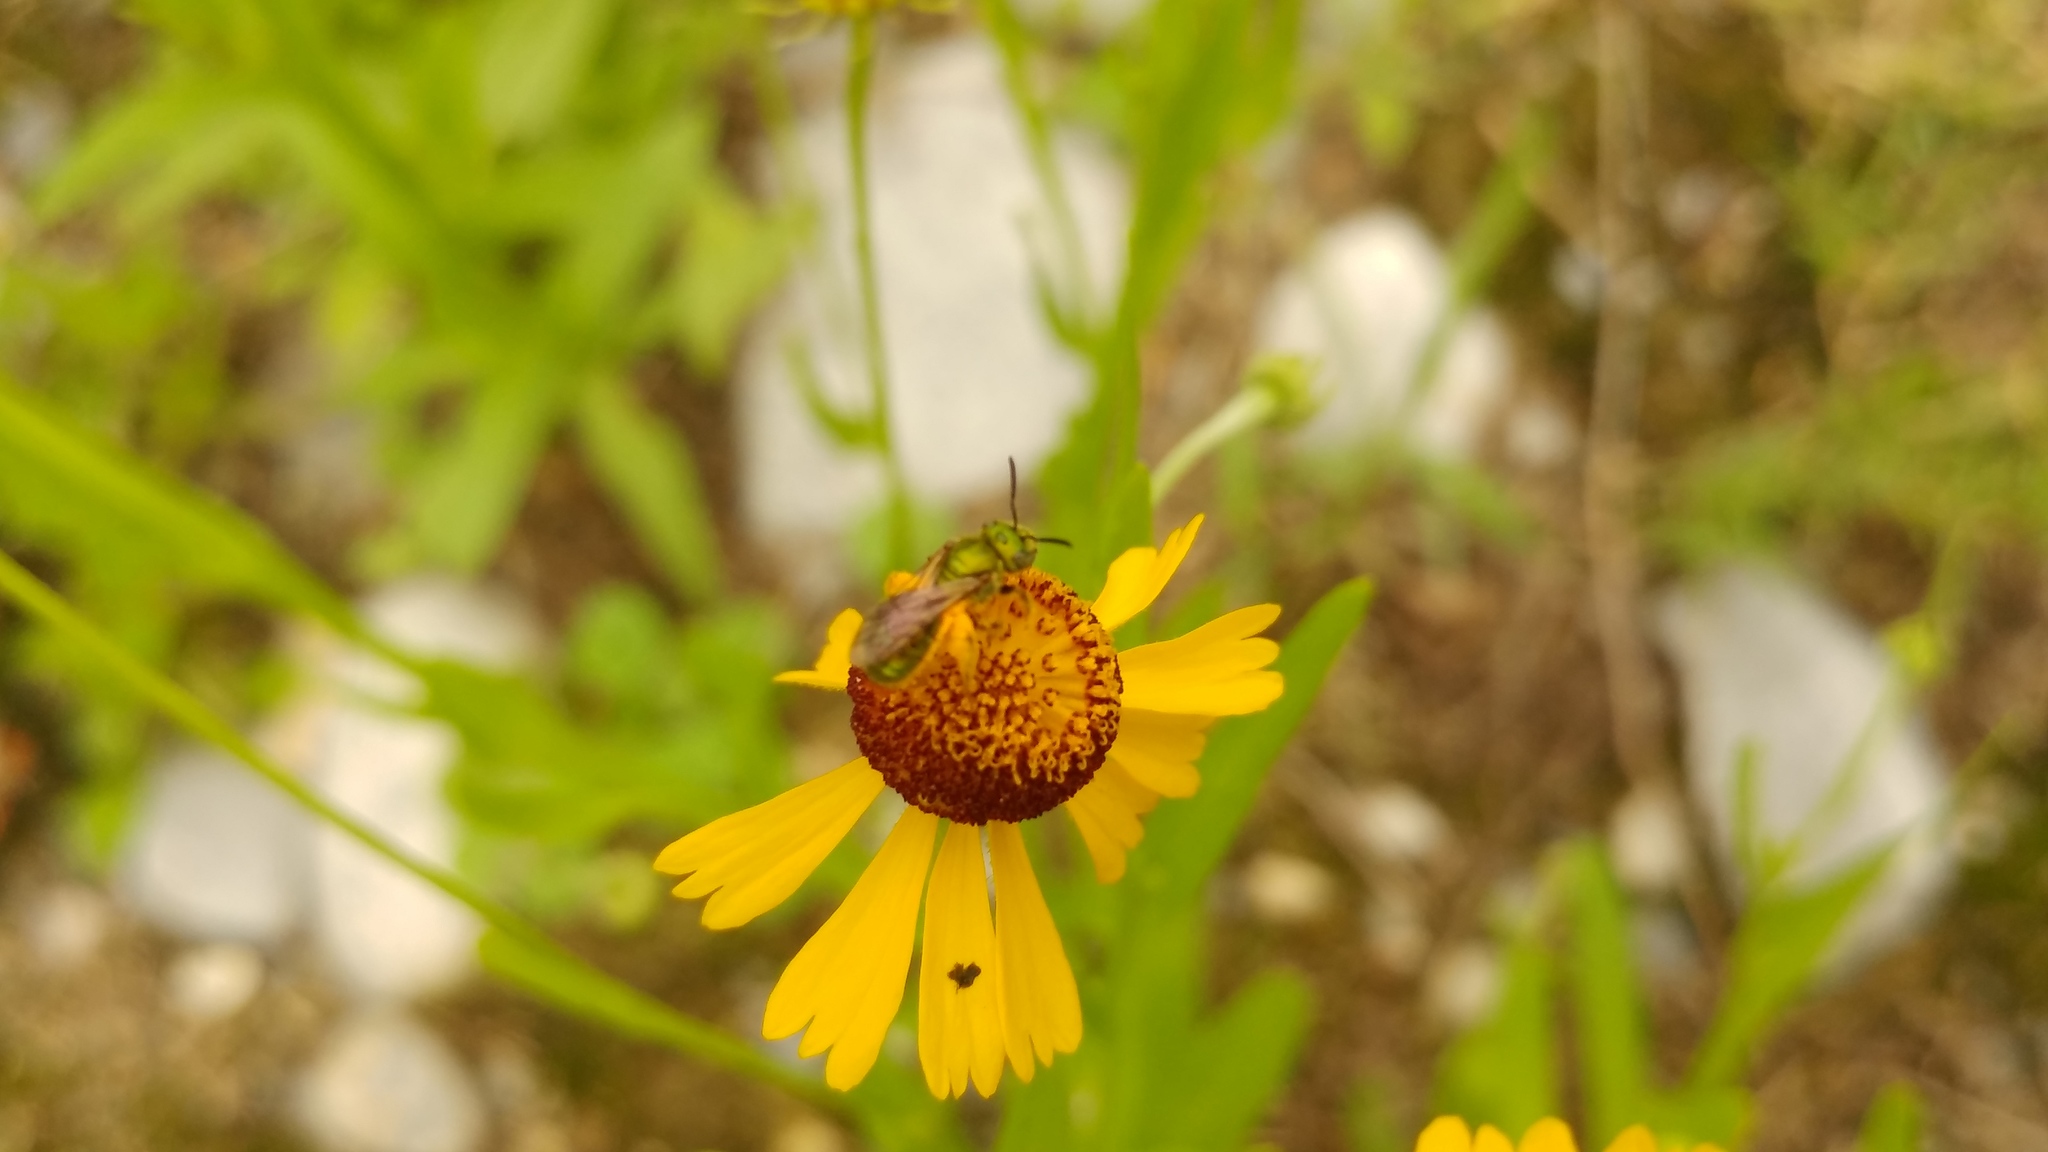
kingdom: Animalia
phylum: Arthropoda
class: Insecta
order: Hymenoptera
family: Halictidae
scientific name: Halictidae
